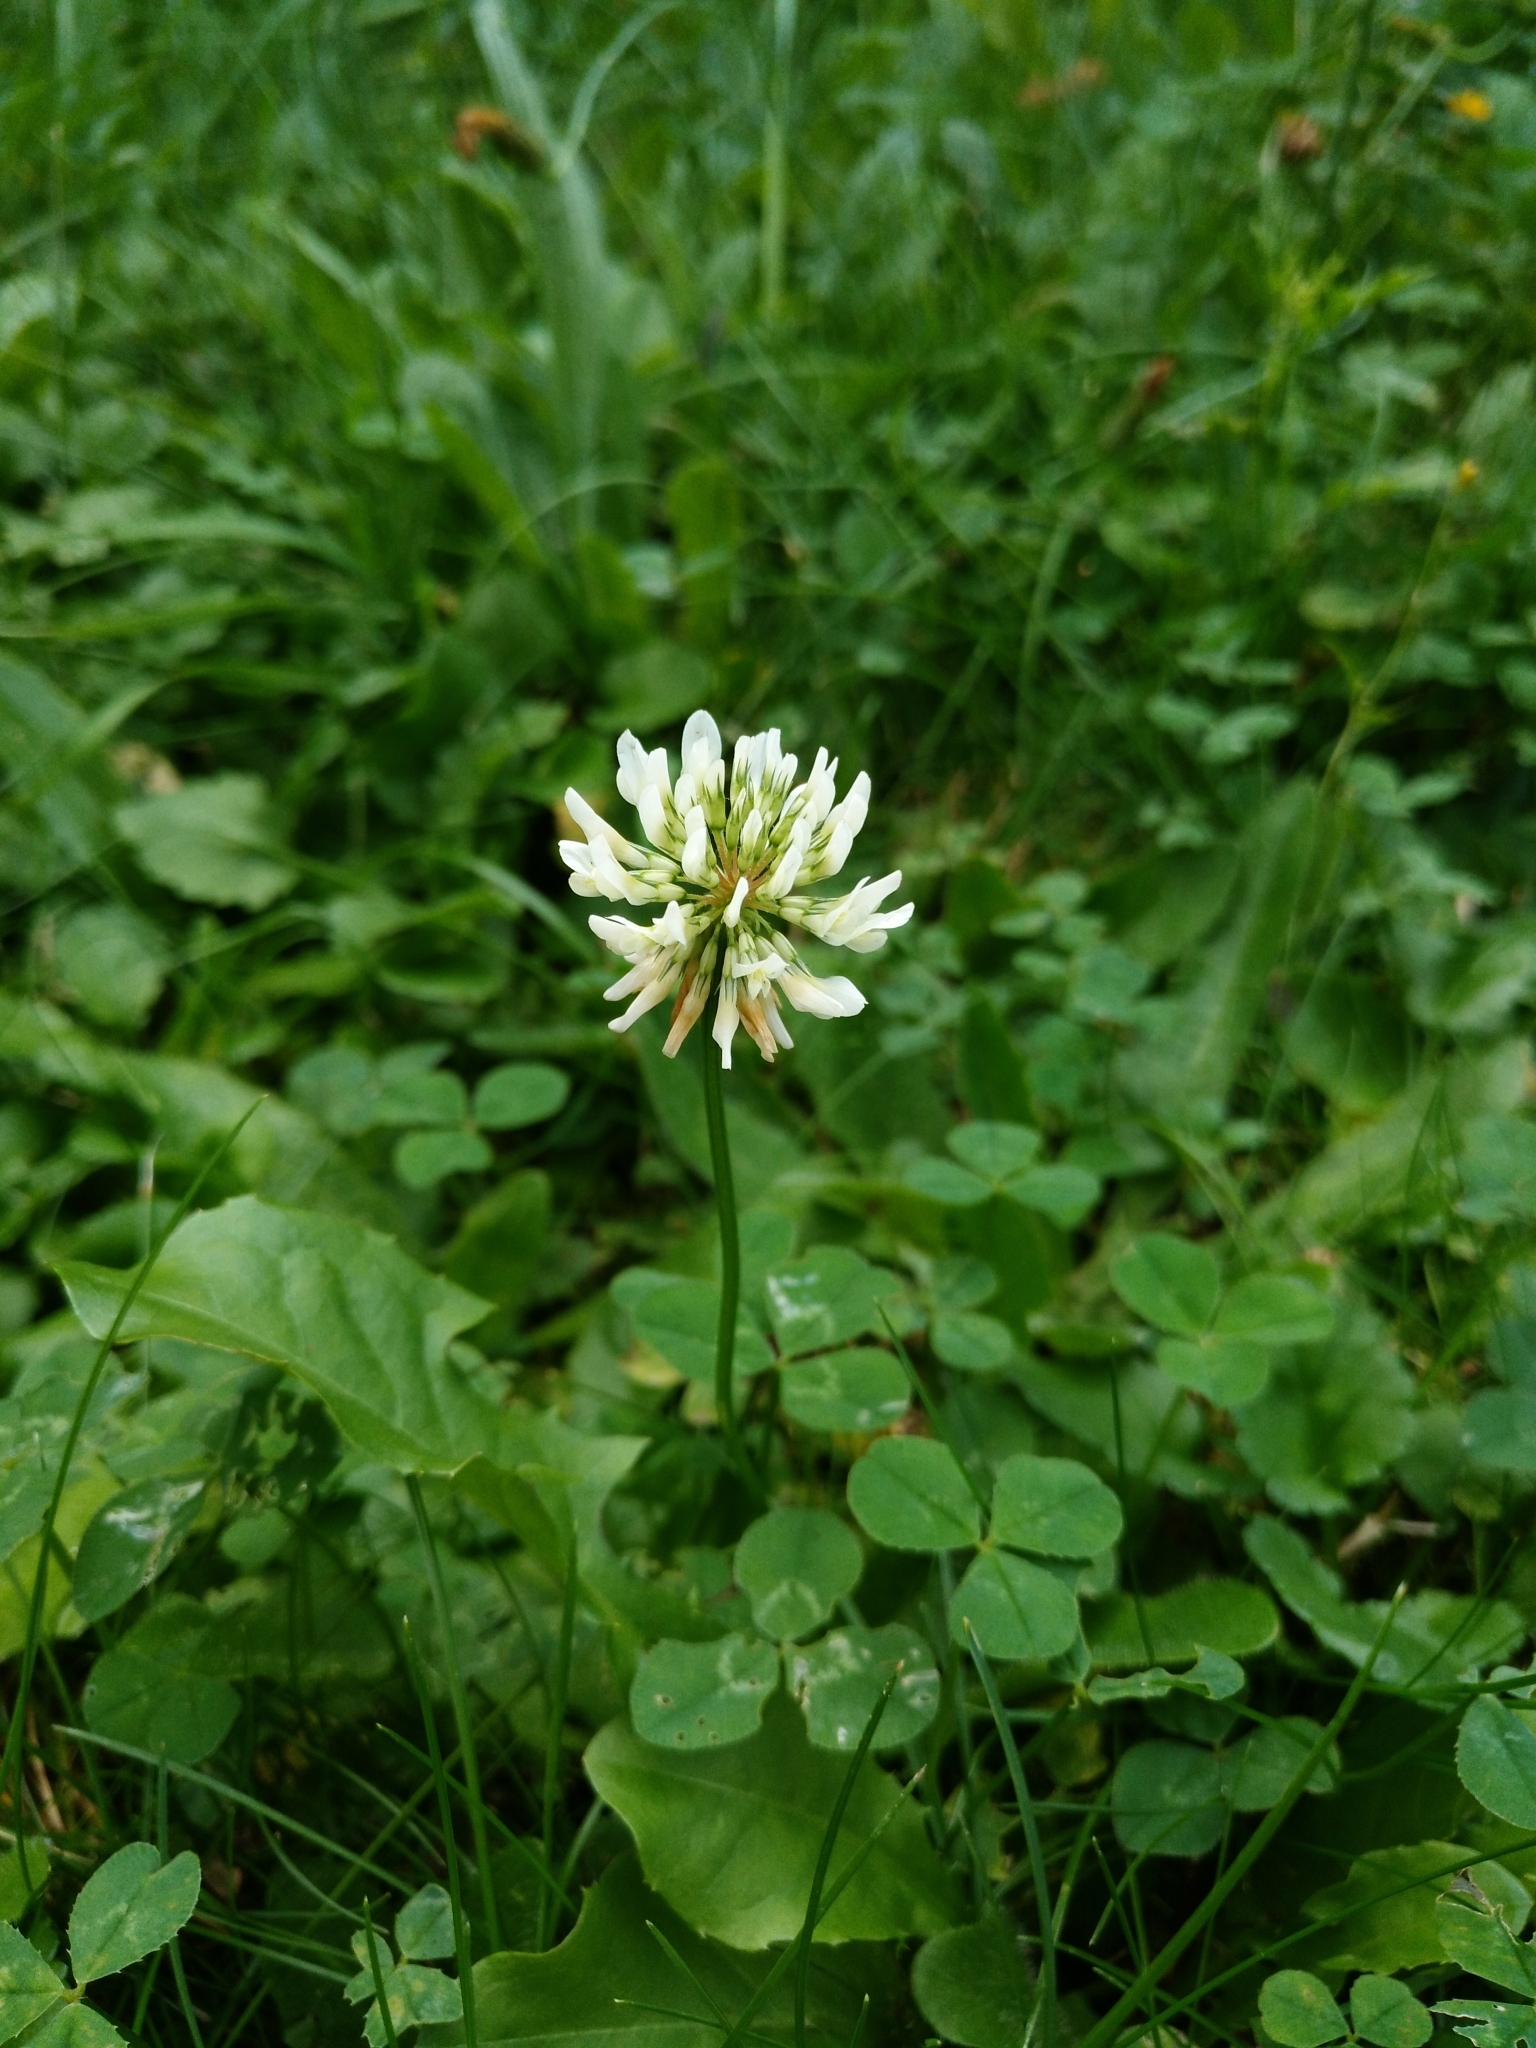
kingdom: Plantae
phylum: Tracheophyta
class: Magnoliopsida
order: Fabales
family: Fabaceae
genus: Trifolium
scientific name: Trifolium repens
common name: White clover
